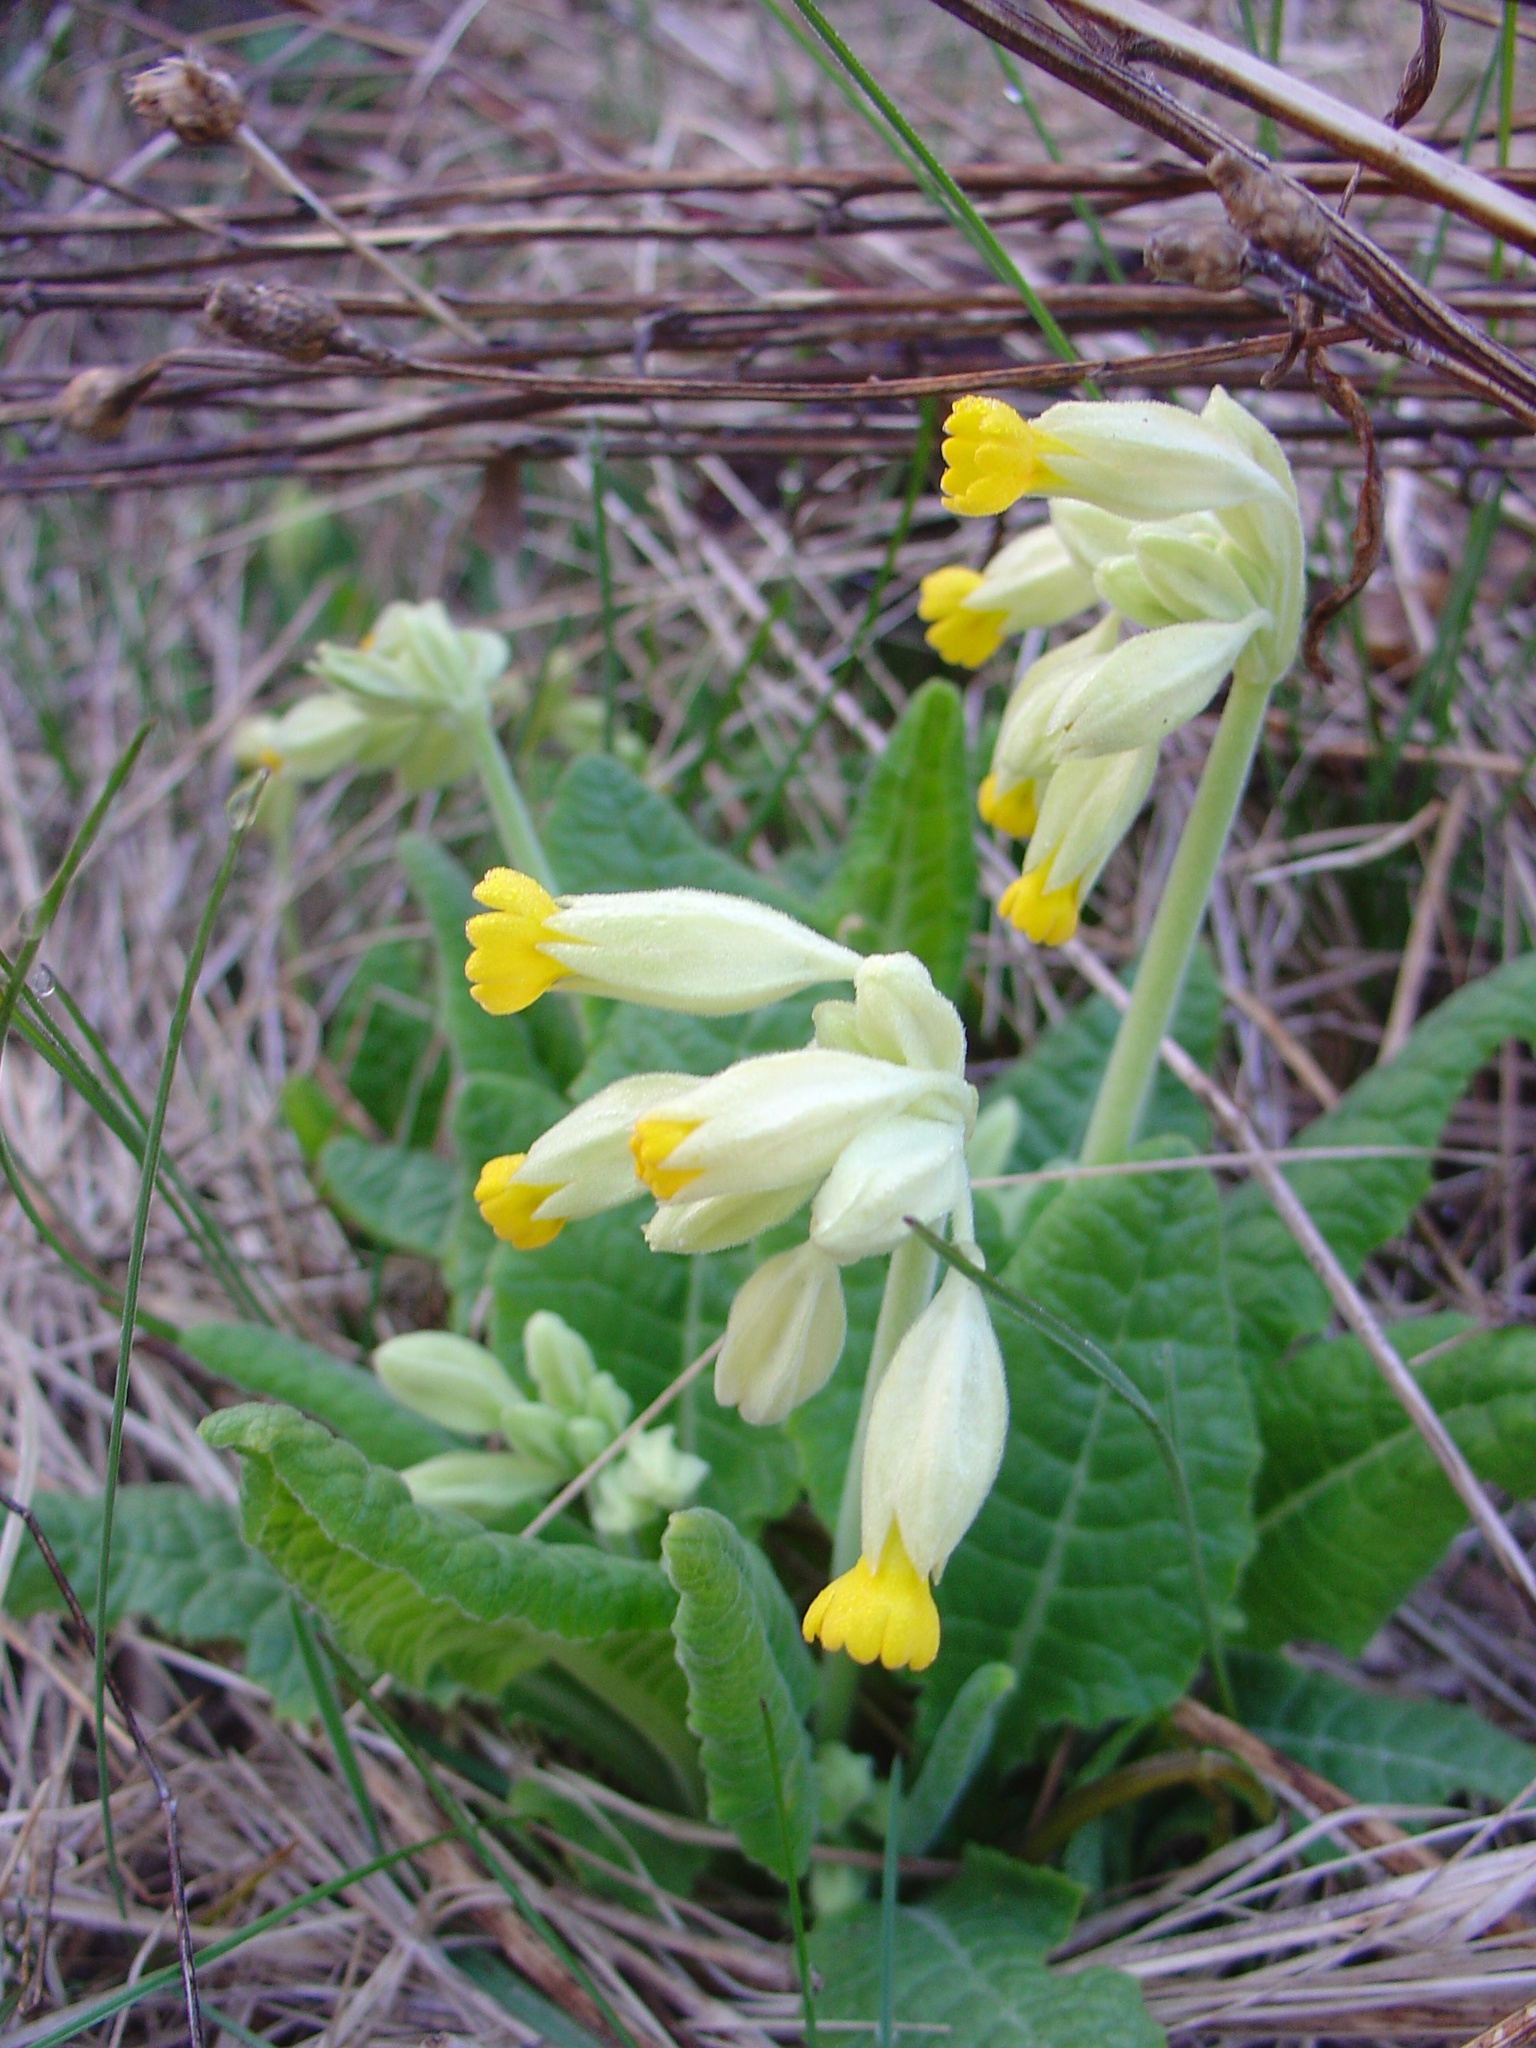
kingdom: Plantae
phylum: Tracheophyta
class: Magnoliopsida
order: Ericales
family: Primulaceae
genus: Primula
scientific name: Primula veris
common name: Cowslip
